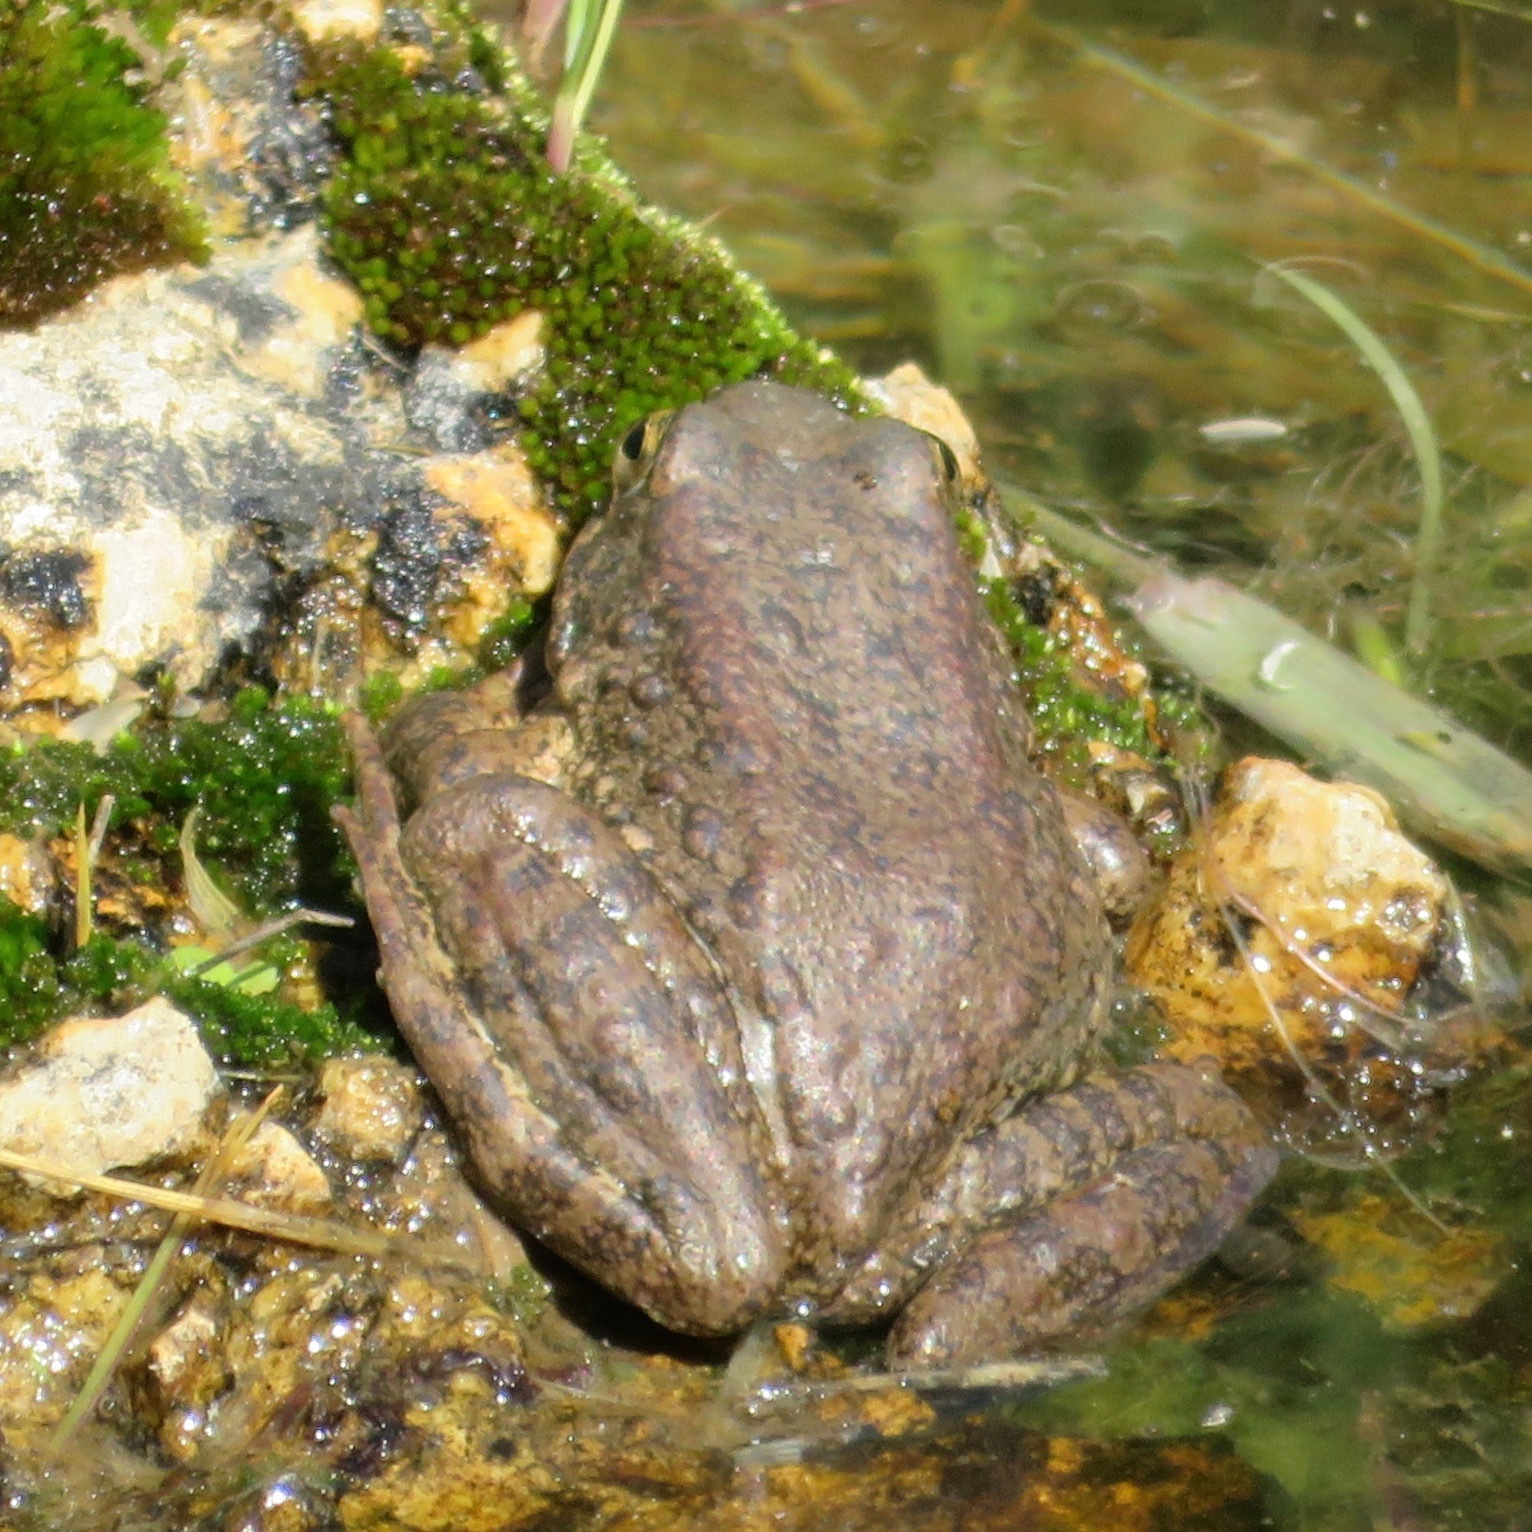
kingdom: Animalia
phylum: Chordata
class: Amphibia
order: Anura
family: Ranidae
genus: Rana
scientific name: Rana boylii
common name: Foothill yellow-legged frog
